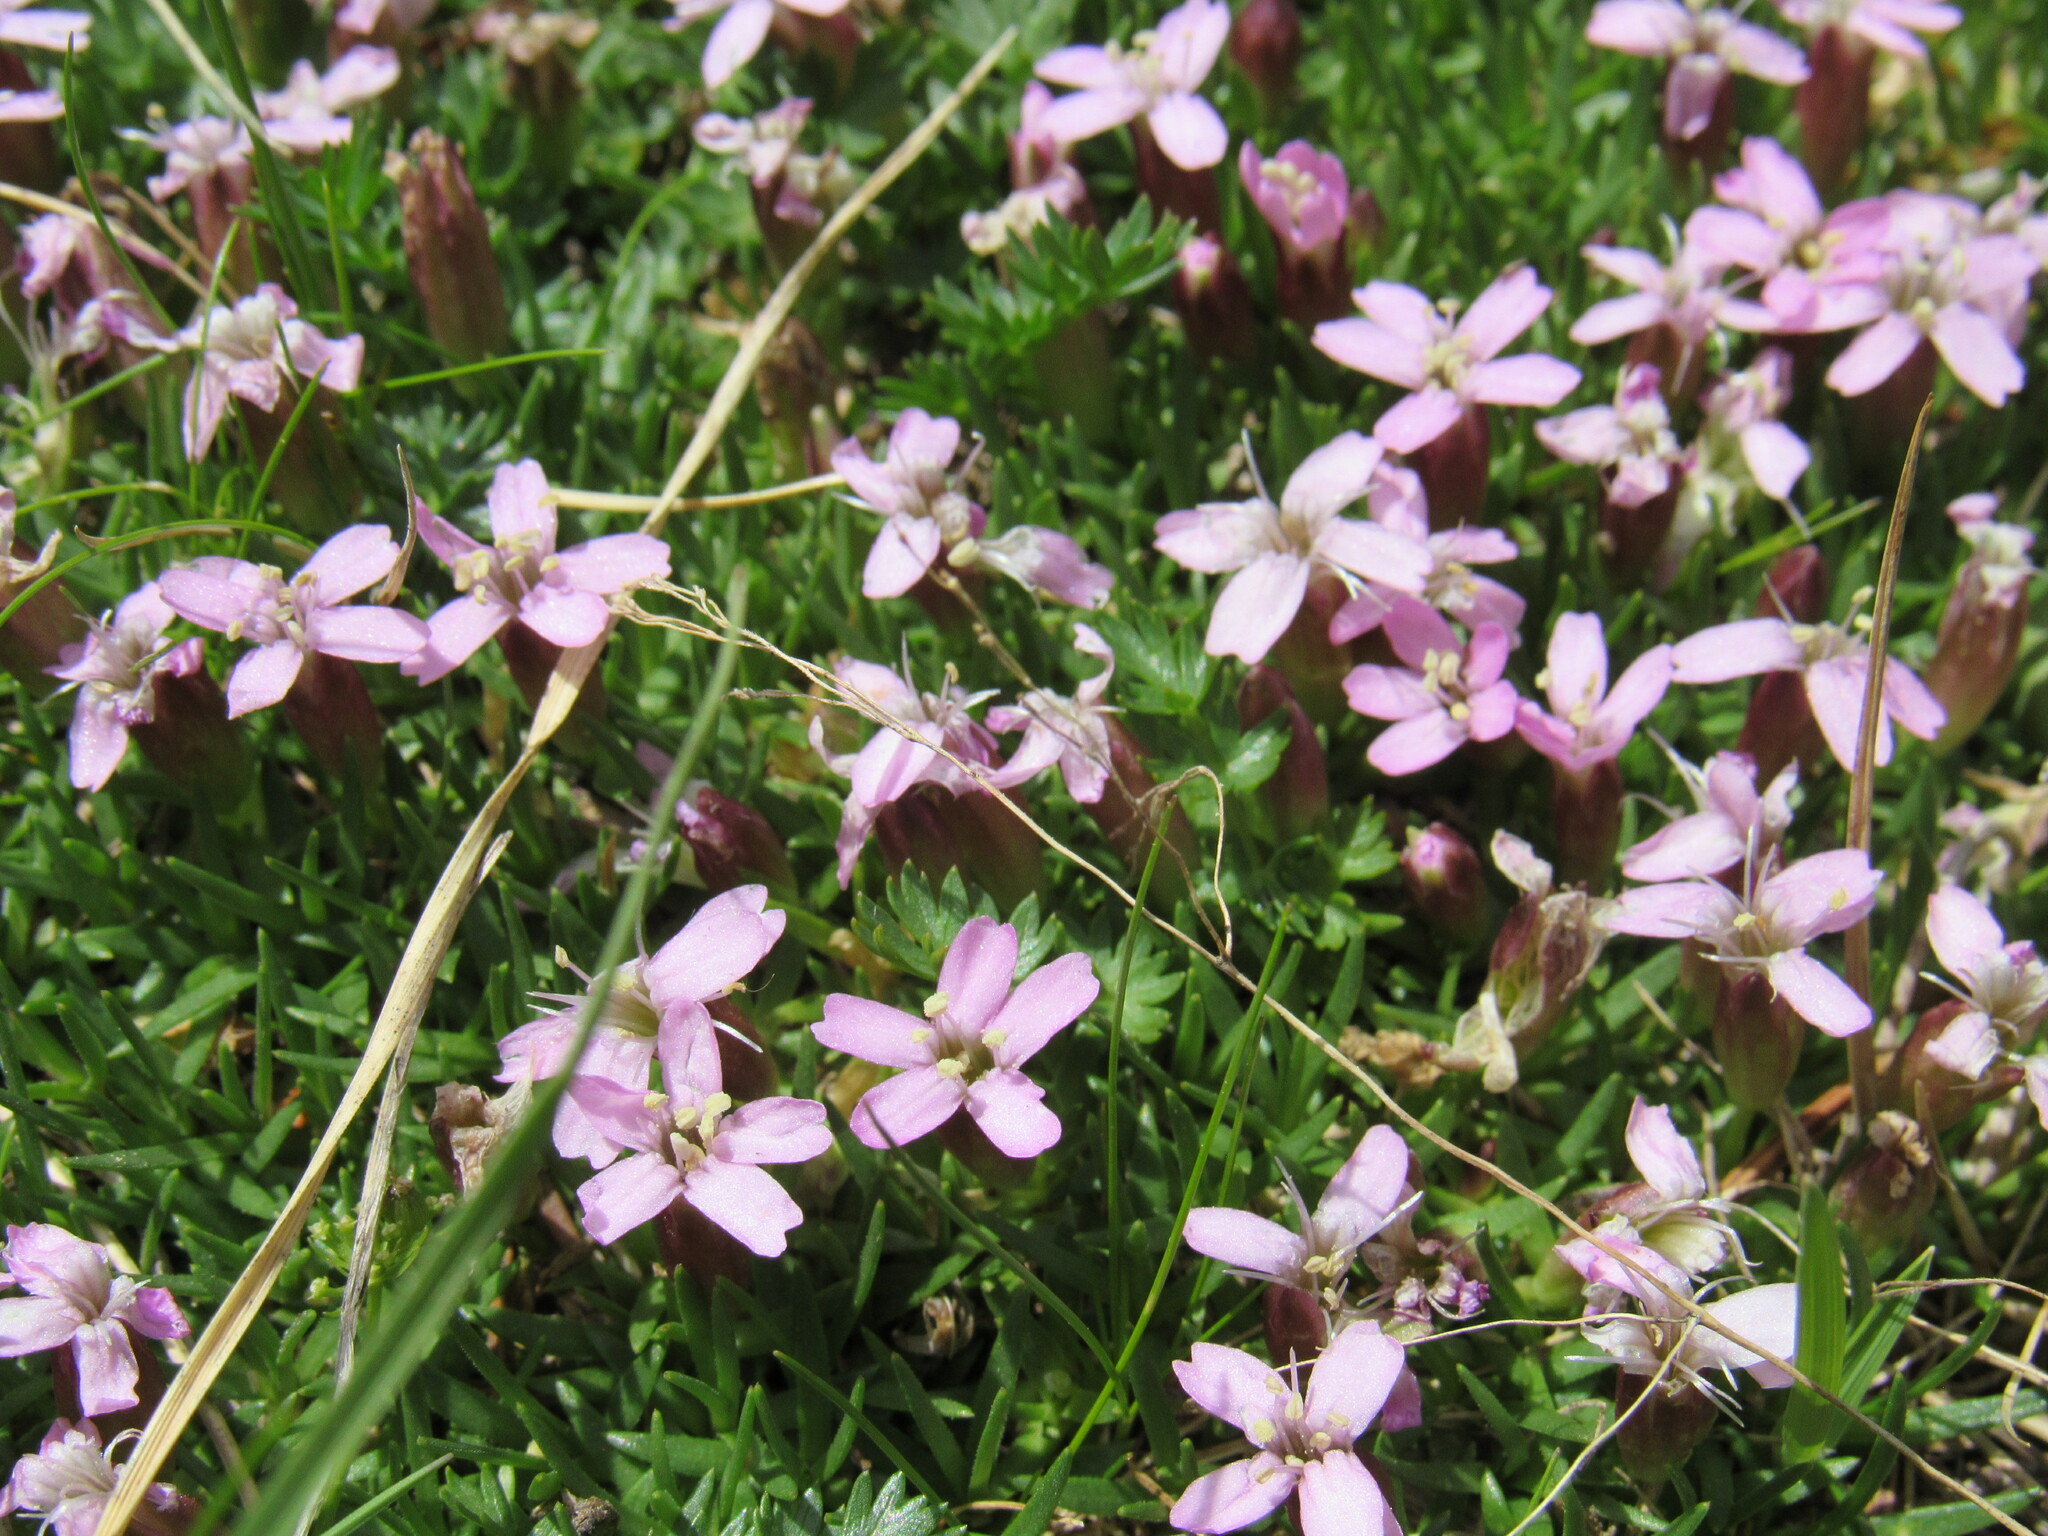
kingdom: Plantae
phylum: Tracheophyta
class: Magnoliopsida
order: Caryophyllales
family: Caryophyllaceae
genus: Silene
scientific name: Silene acaulis
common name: Moss campion
